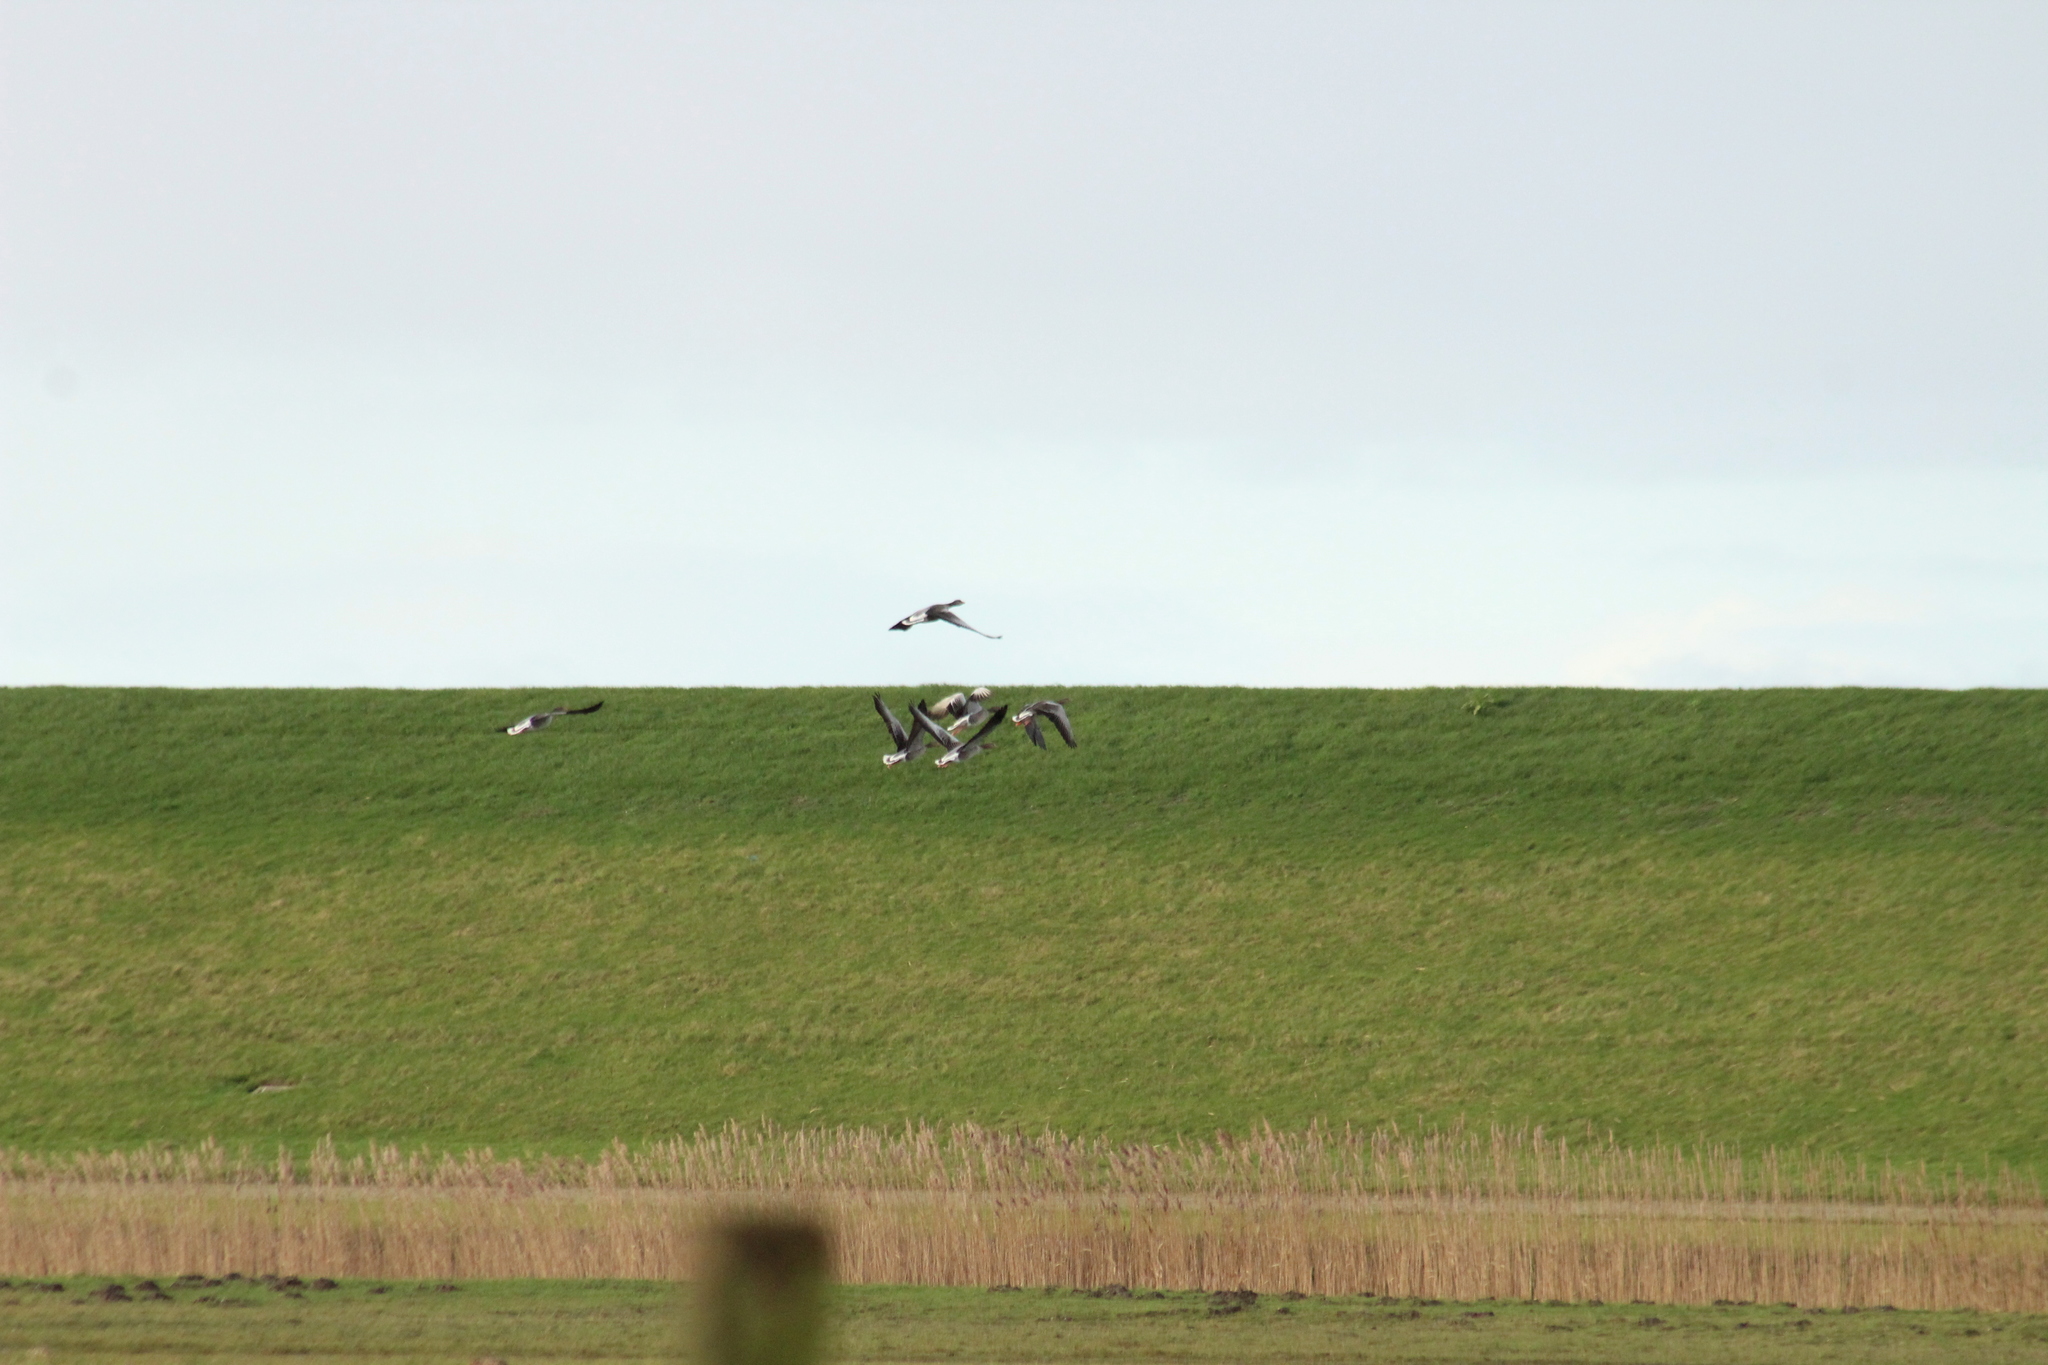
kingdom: Animalia
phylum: Chordata
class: Aves
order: Anseriformes
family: Anatidae
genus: Anser
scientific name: Anser anser
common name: Greylag goose
